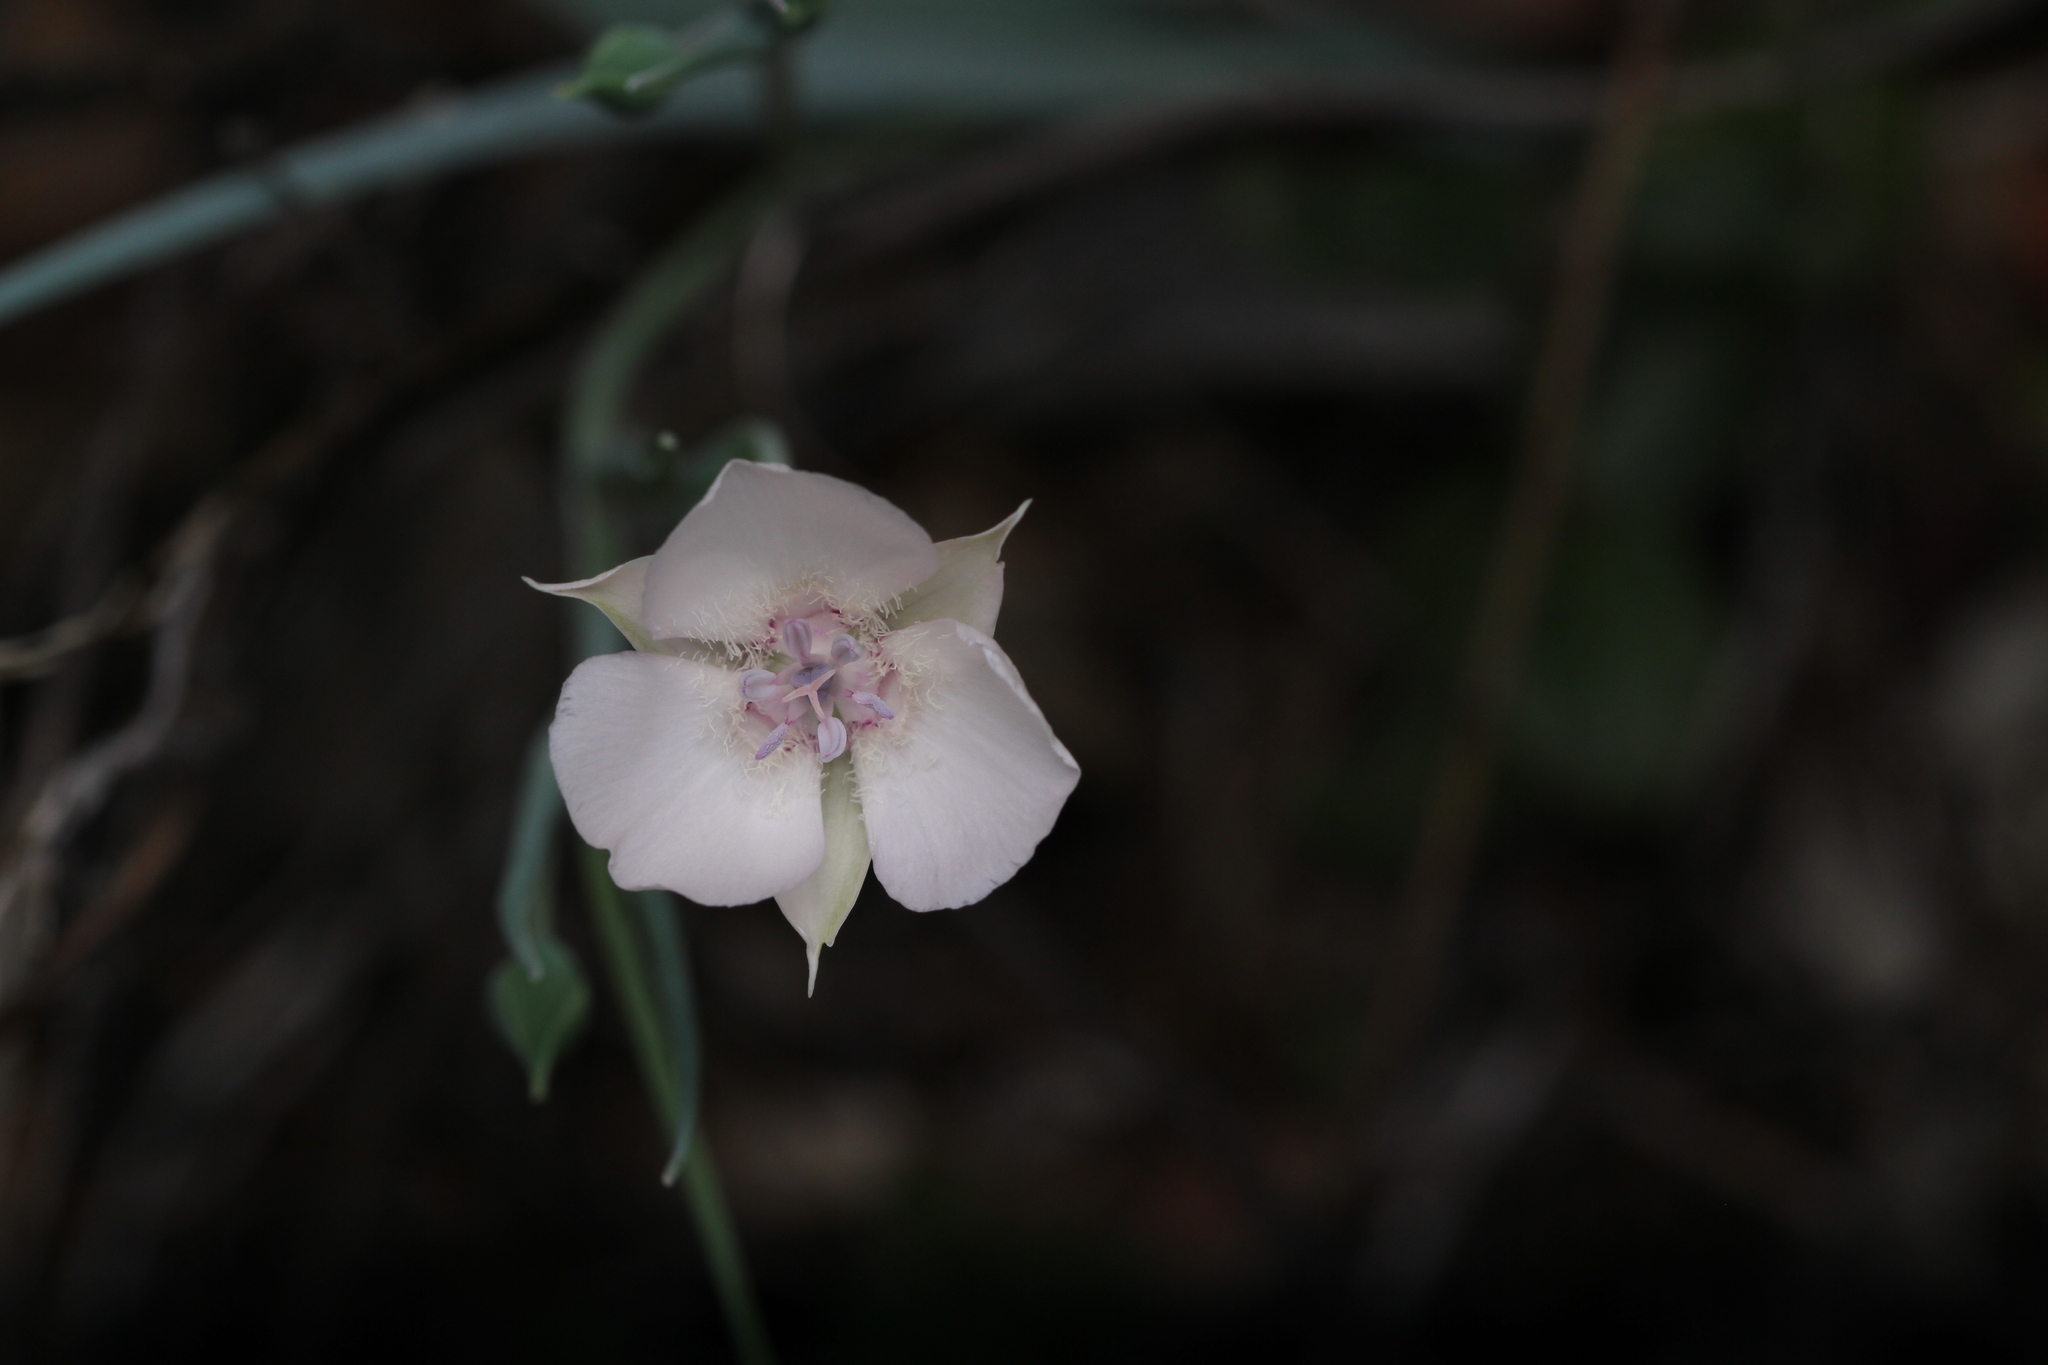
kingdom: Plantae
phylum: Tracheophyta
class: Liliopsida
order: Liliales
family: Liliaceae
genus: Calochortus
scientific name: Calochortus umbellatus
